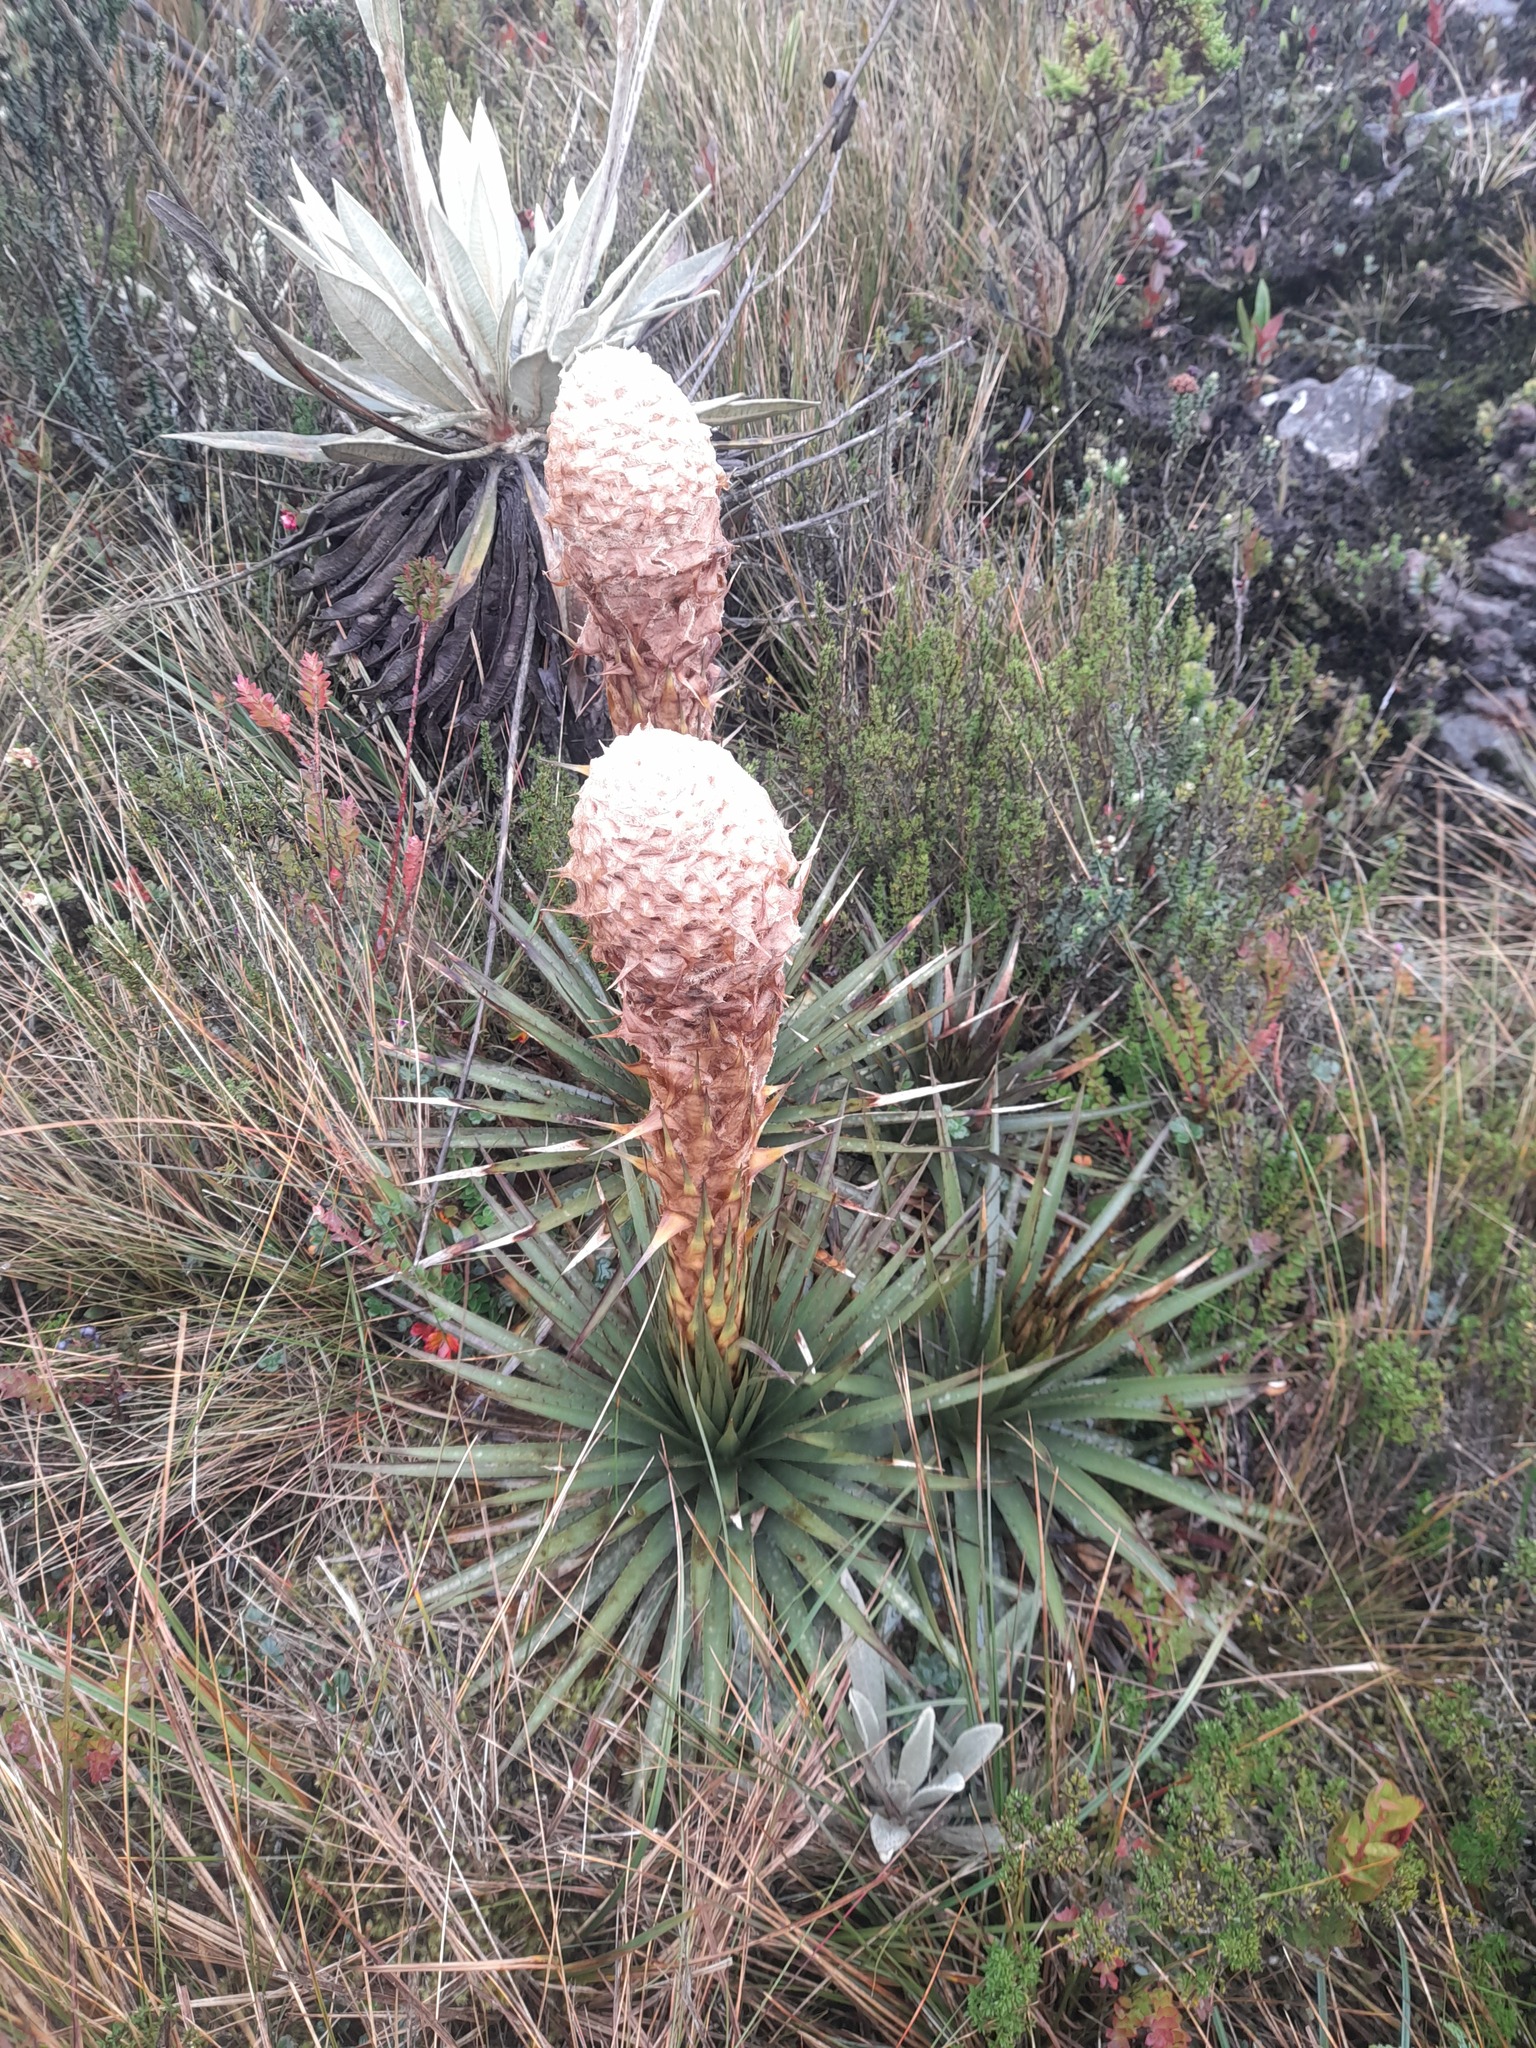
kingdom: Plantae
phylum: Tracheophyta
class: Liliopsida
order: Poales
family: Bromeliaceae
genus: Puya
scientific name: Puya trianae
